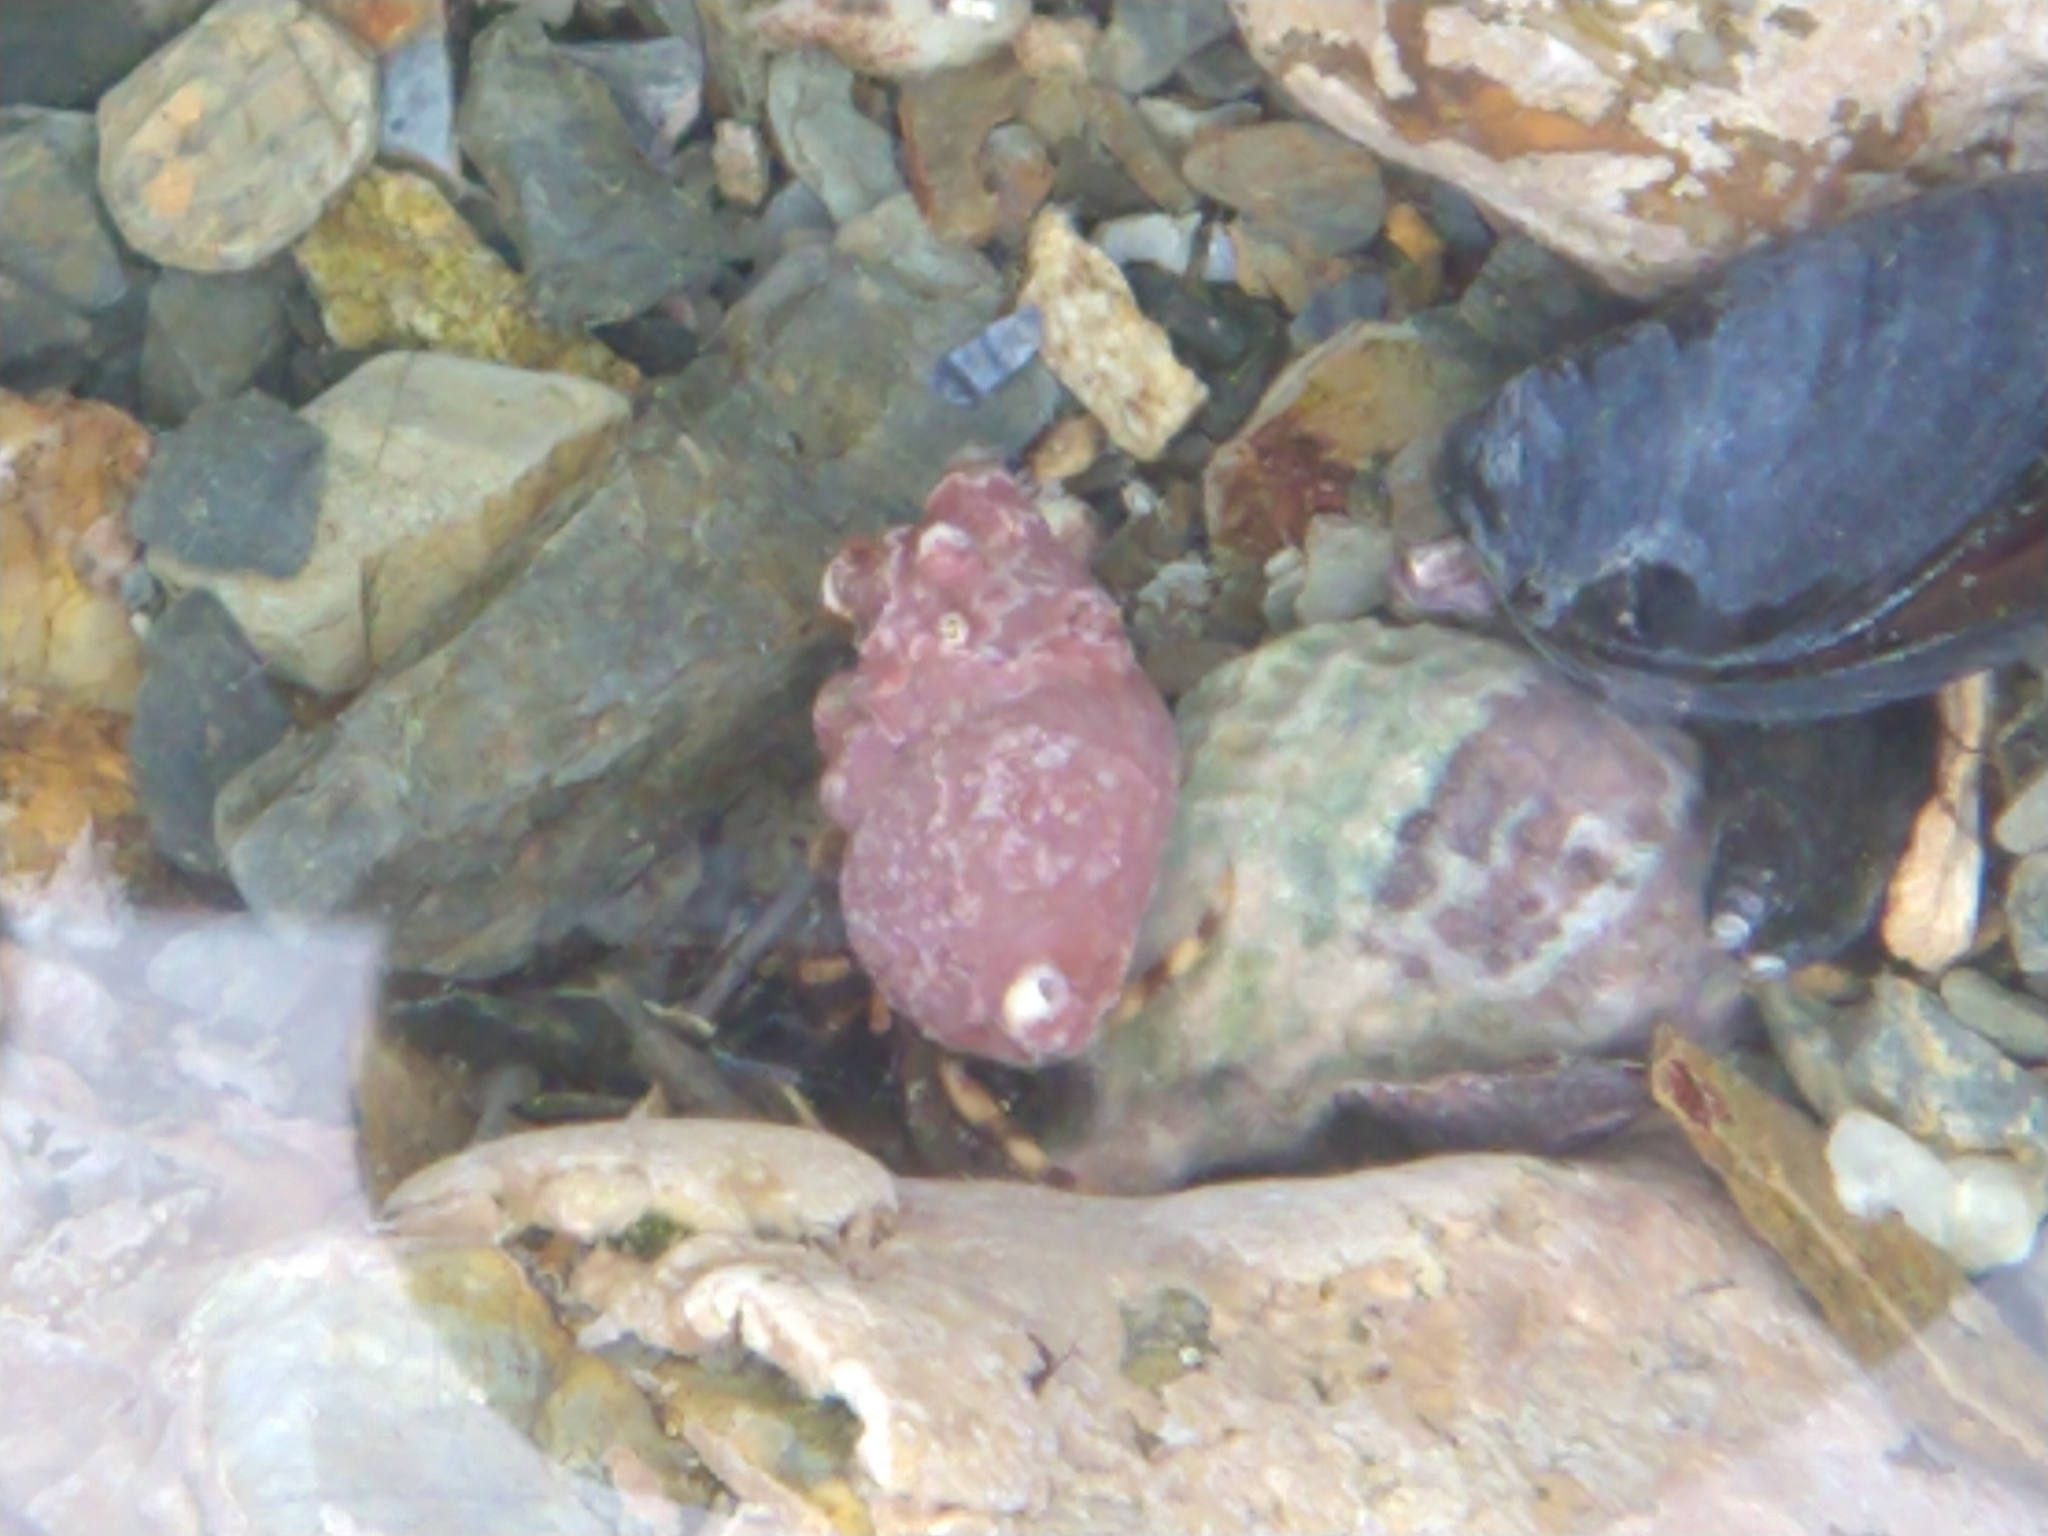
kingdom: Animalia
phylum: Arthropoda
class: Malacostraca
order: Decapoda
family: Paguridae
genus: Pagurus
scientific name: Pagurus comptus
